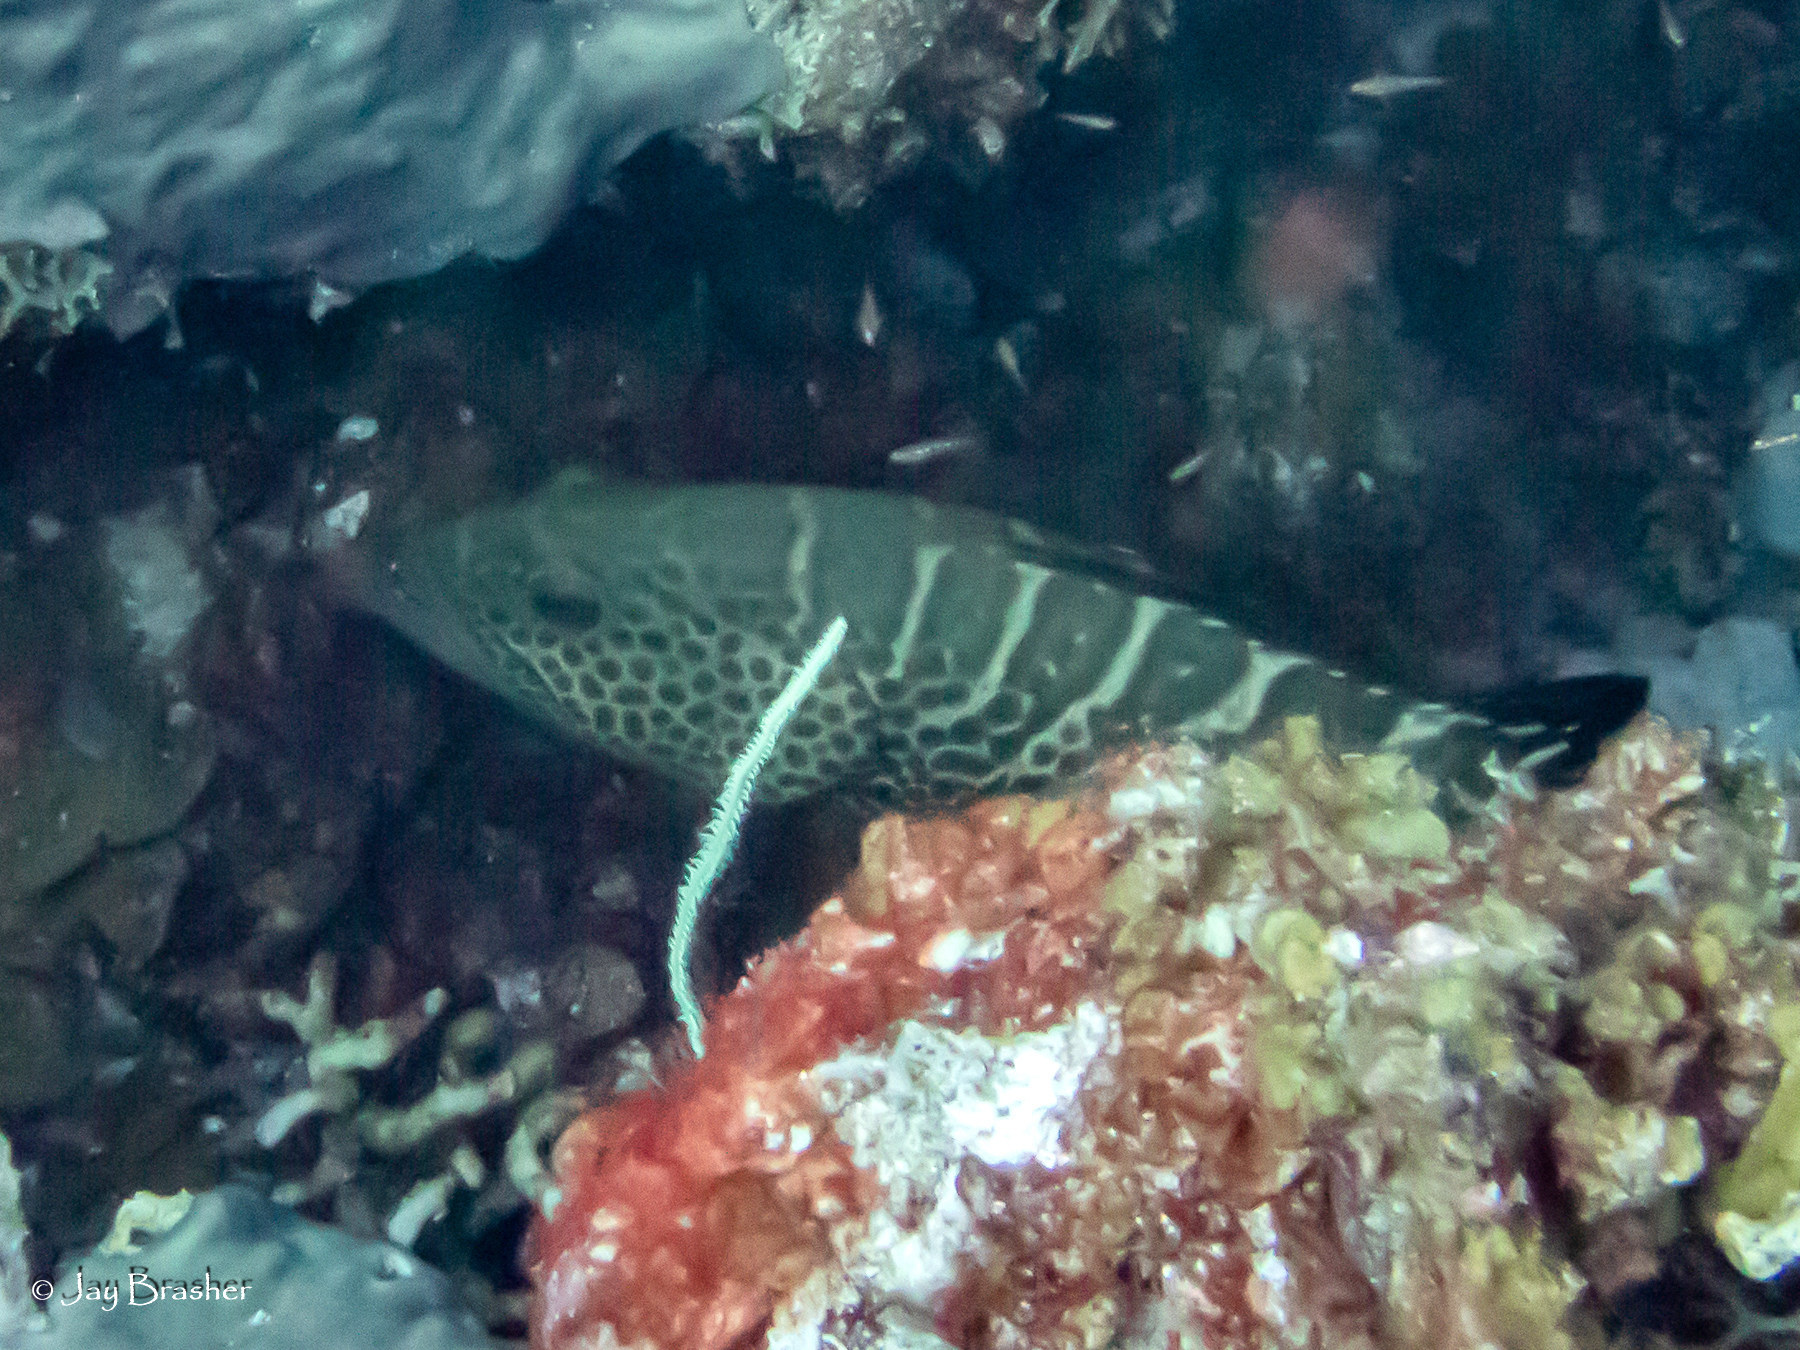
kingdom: Animalia
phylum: Chordata
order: Perciformes
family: Serranidae
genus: Mycteroperca
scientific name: Mycteroperca tigris
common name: Tiger grouper
